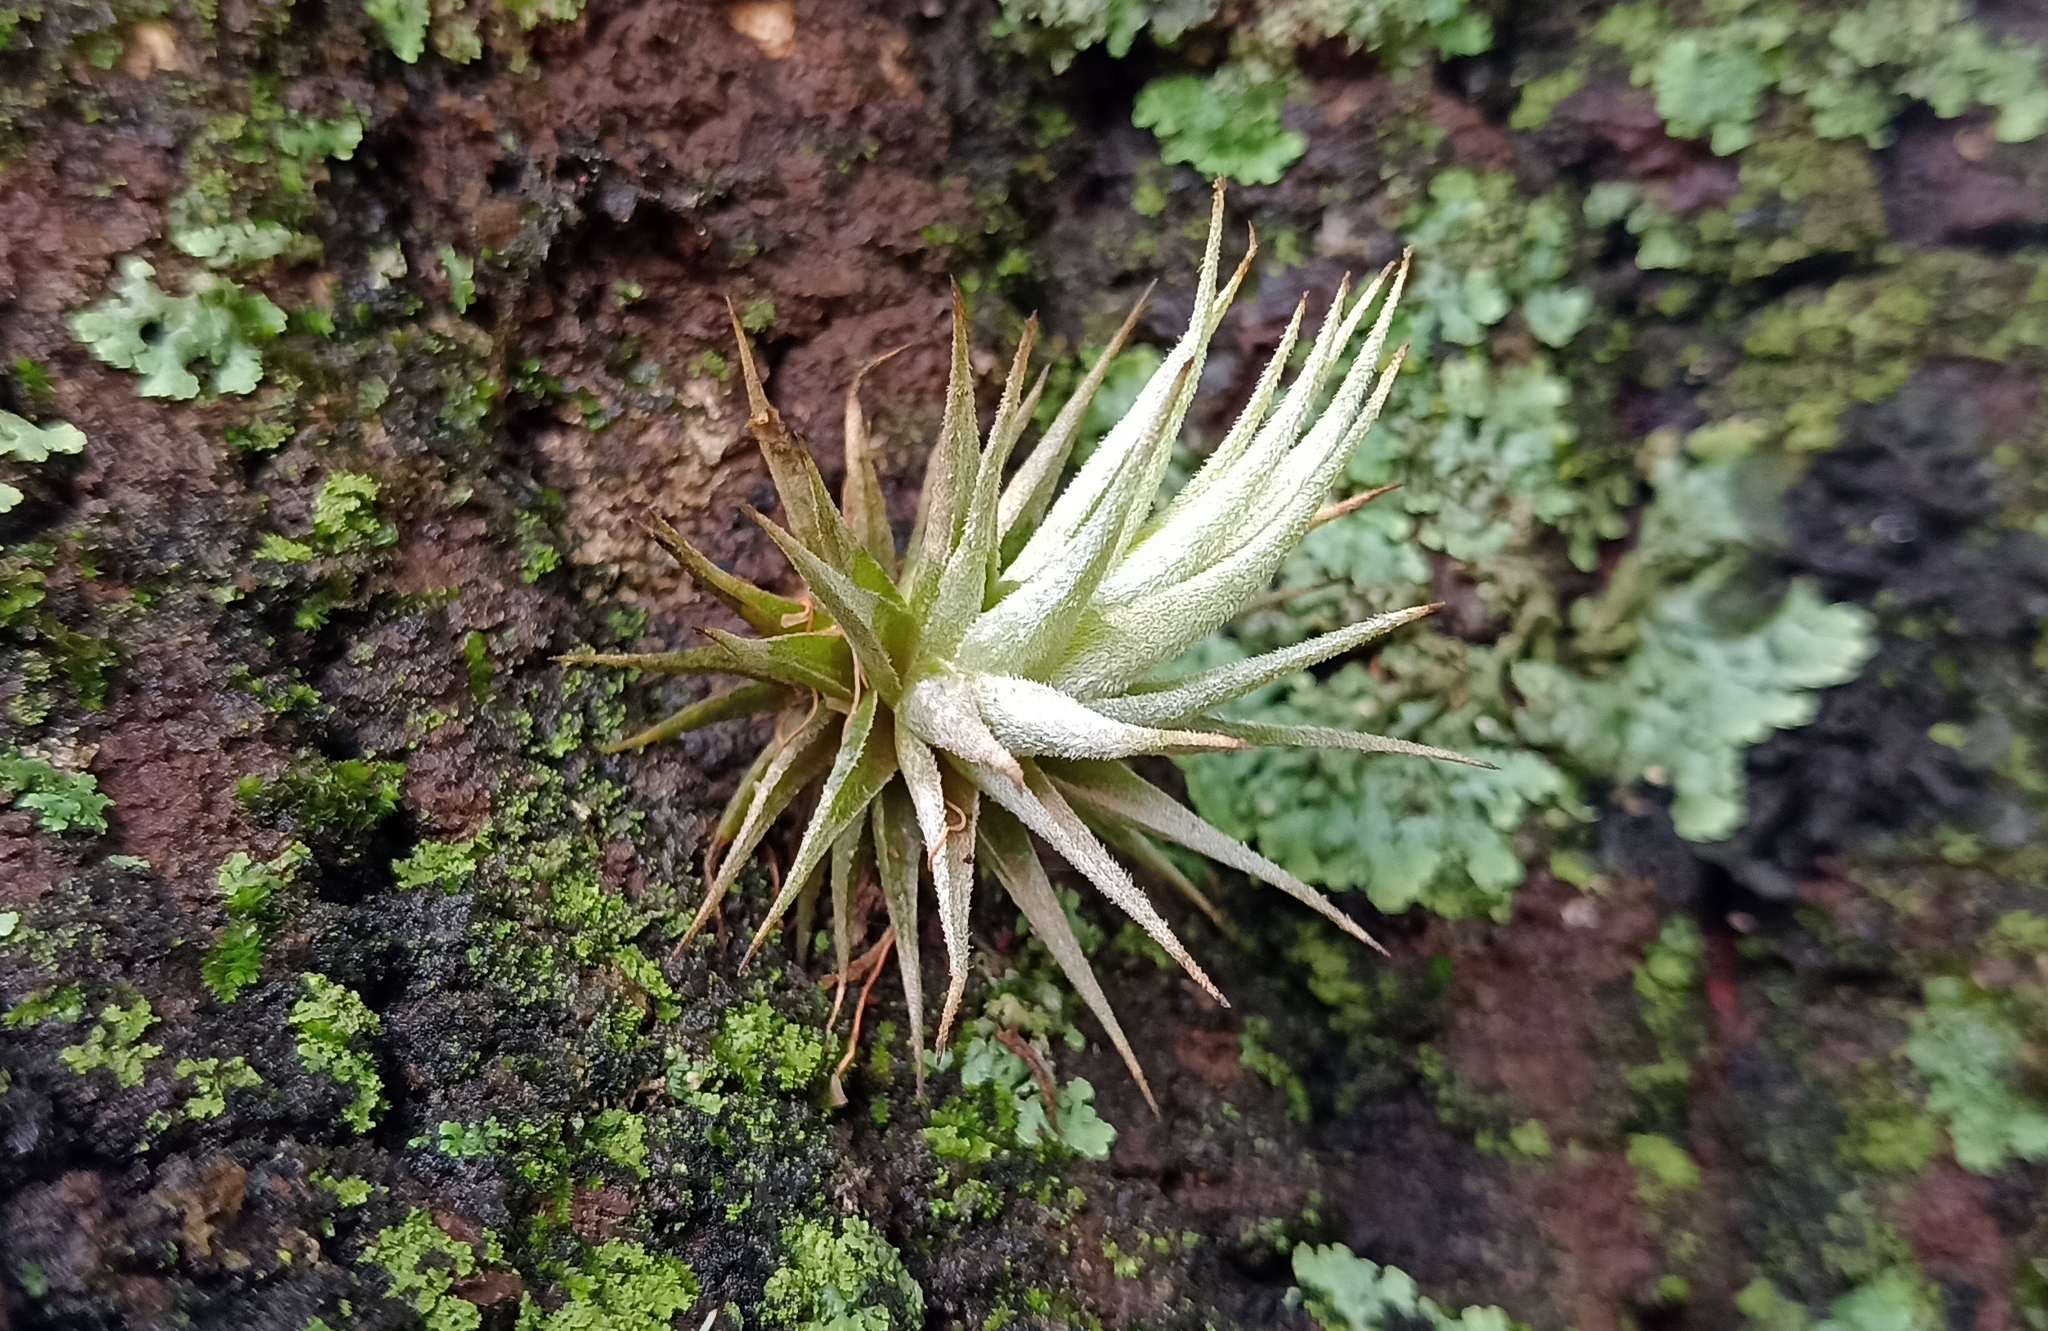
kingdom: Plantae
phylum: Tracheophyta
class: Liliopsida
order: Poales
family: Bromeliaceae
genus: Tillandsia
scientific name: Tillandsia loliacea
